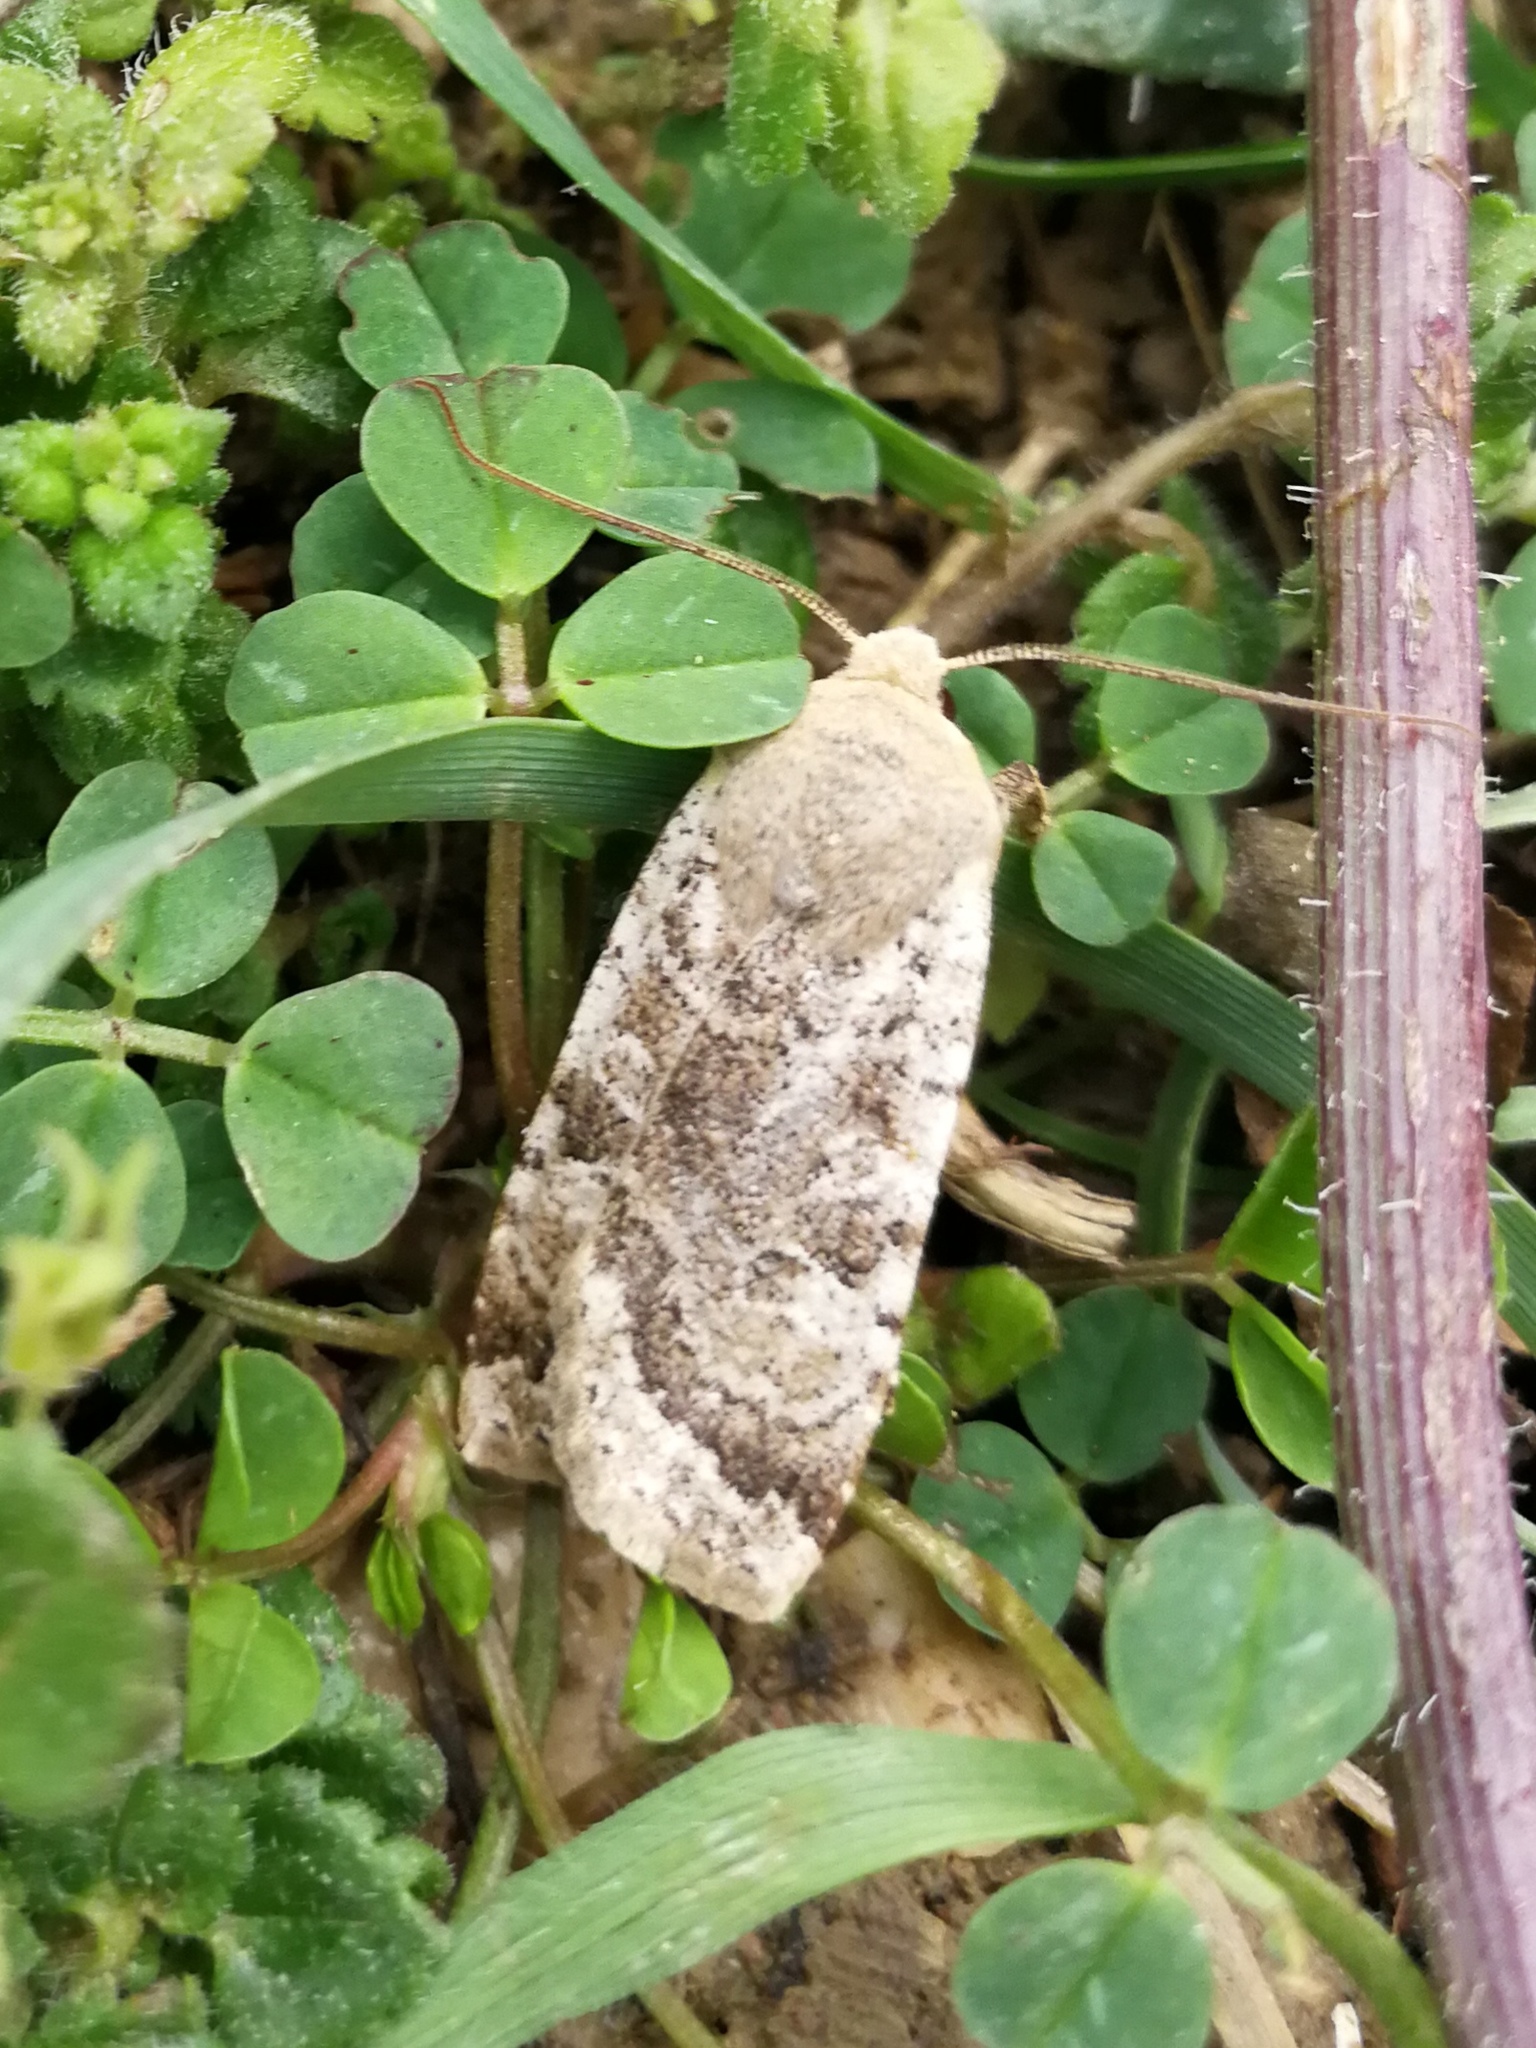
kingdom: Animalia
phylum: Arthropoda
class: Insecta
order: Lepidoptera
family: Noctuidae
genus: Conistra
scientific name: Conistra daubei
